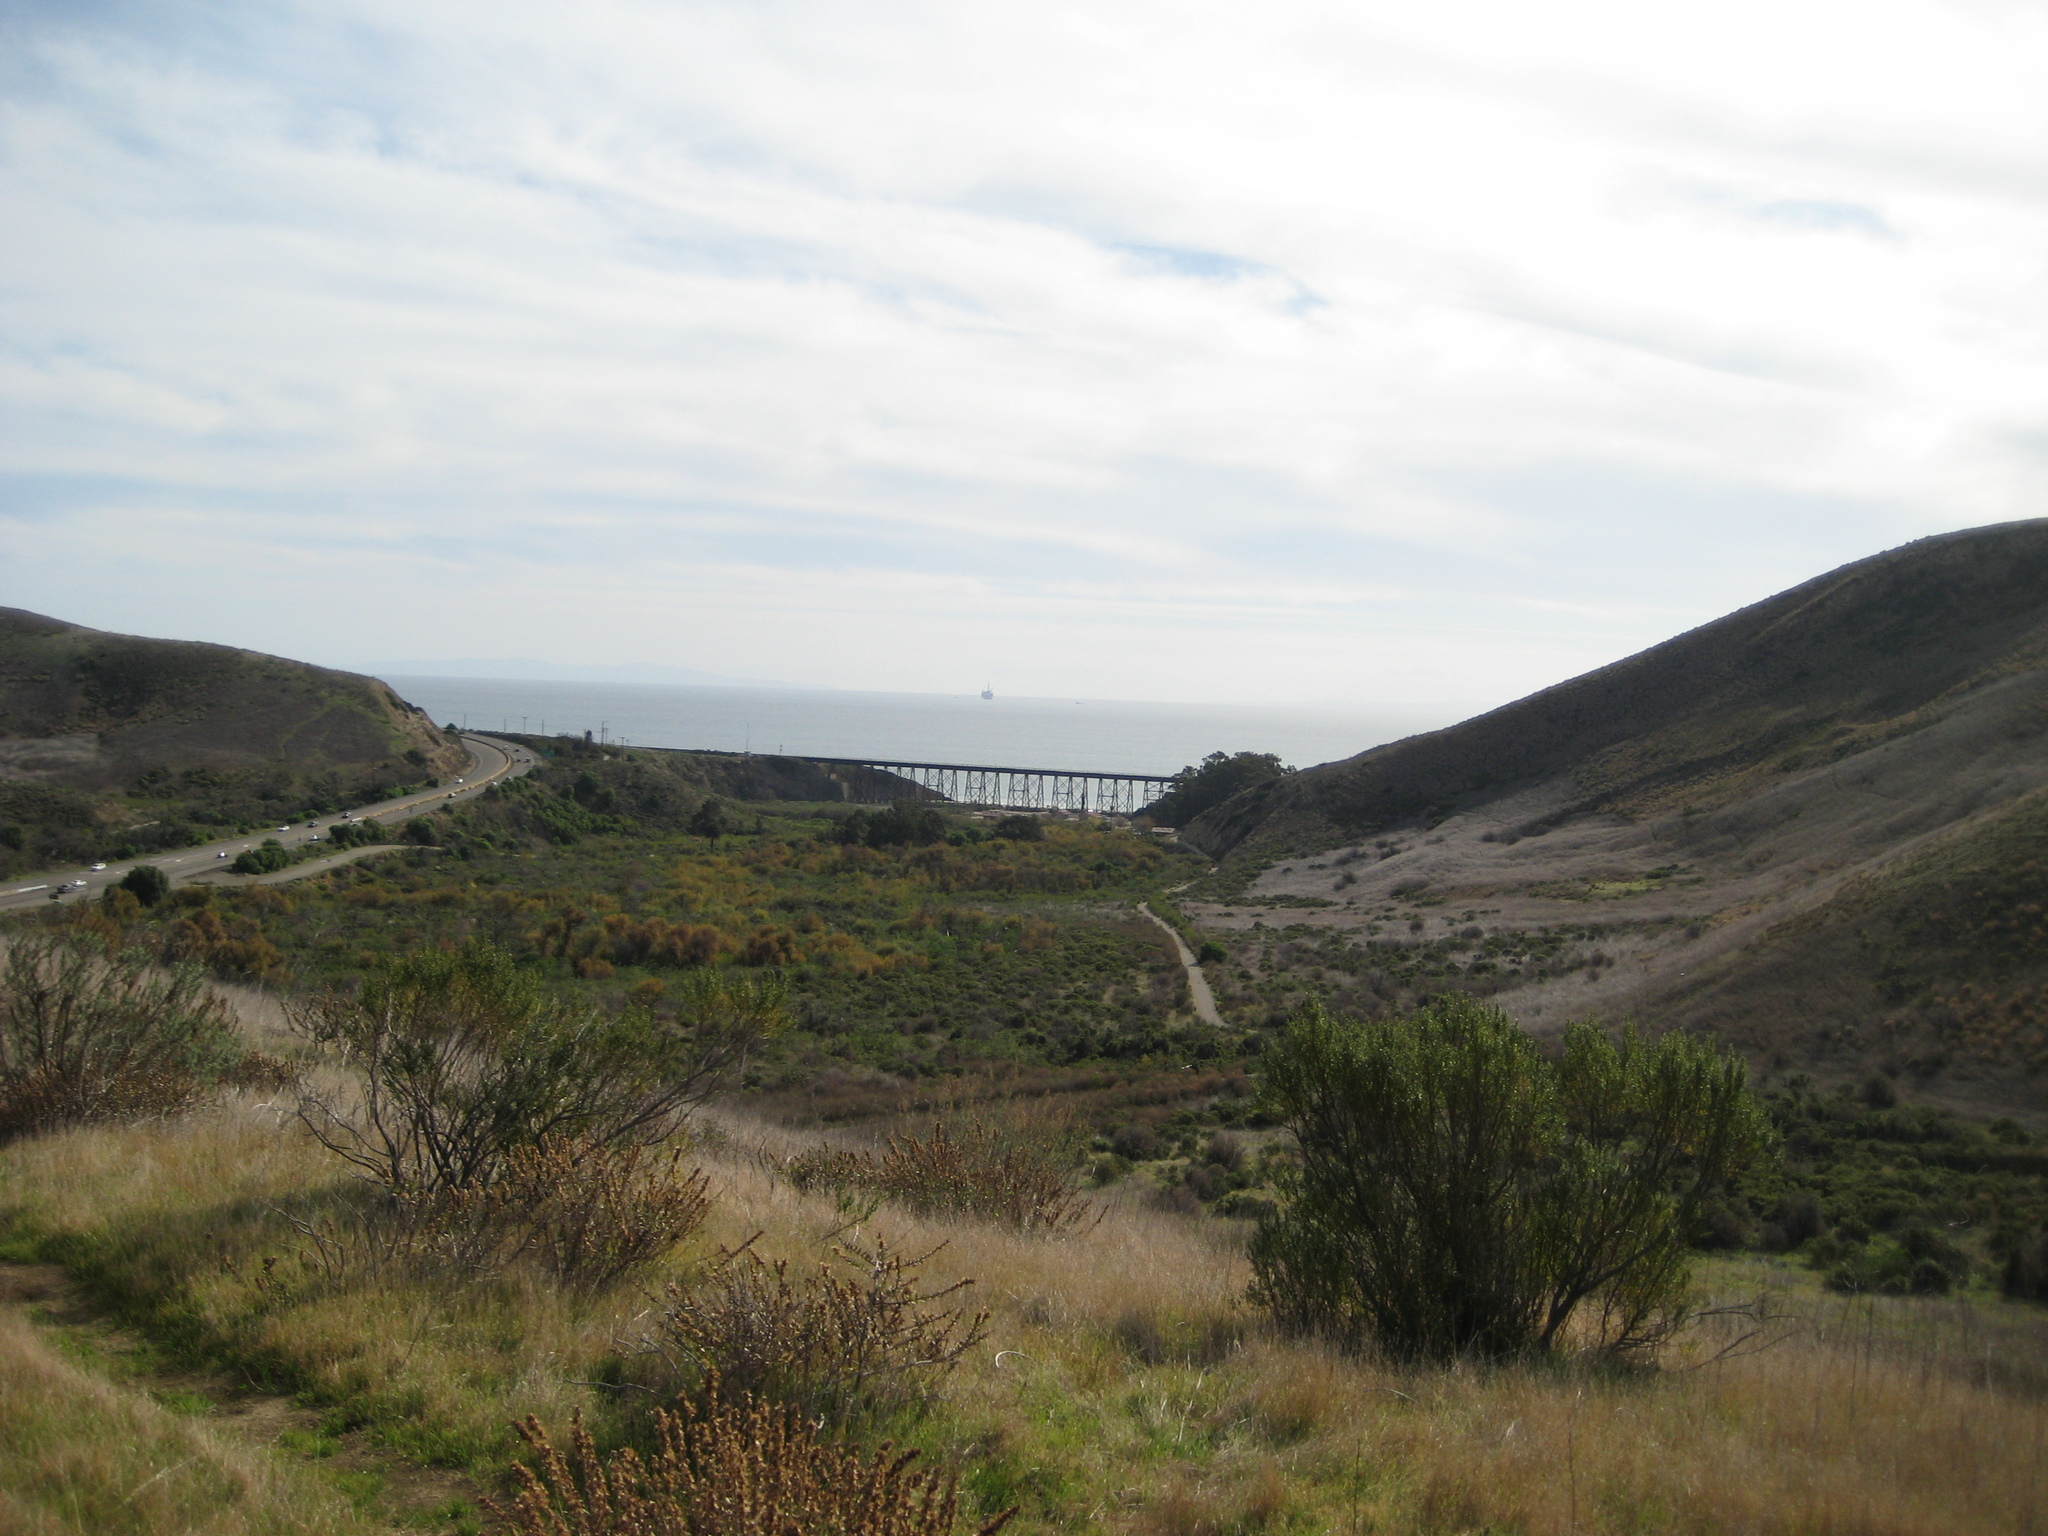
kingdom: Plantae
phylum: Tracheophyta
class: Magnoliopsida
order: Asterales
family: Asteraceae
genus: Hazardia
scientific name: Hazardia squarrosa
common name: Saw-tooth goldenbush
